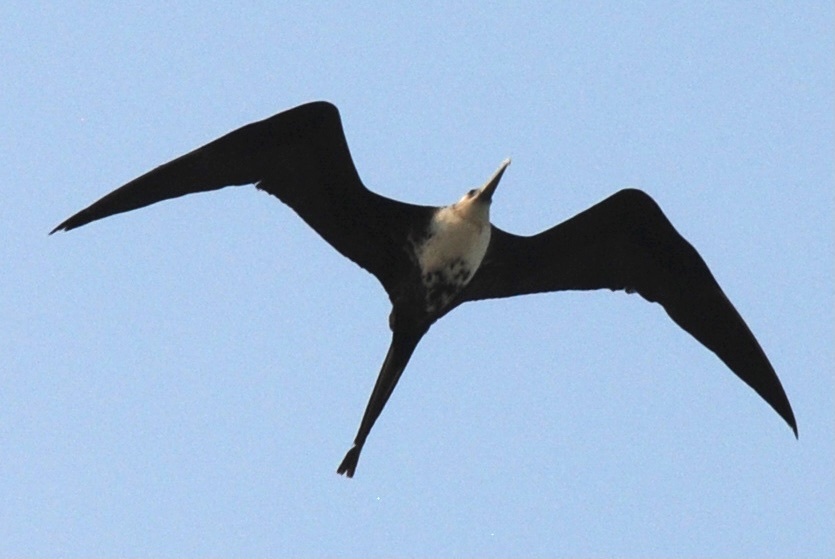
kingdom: Animalia
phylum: Chordata
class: Aves
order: Suliformes
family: Fregatidae
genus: Fregata
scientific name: Fregata magnificens
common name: Magnificent frigatebird
